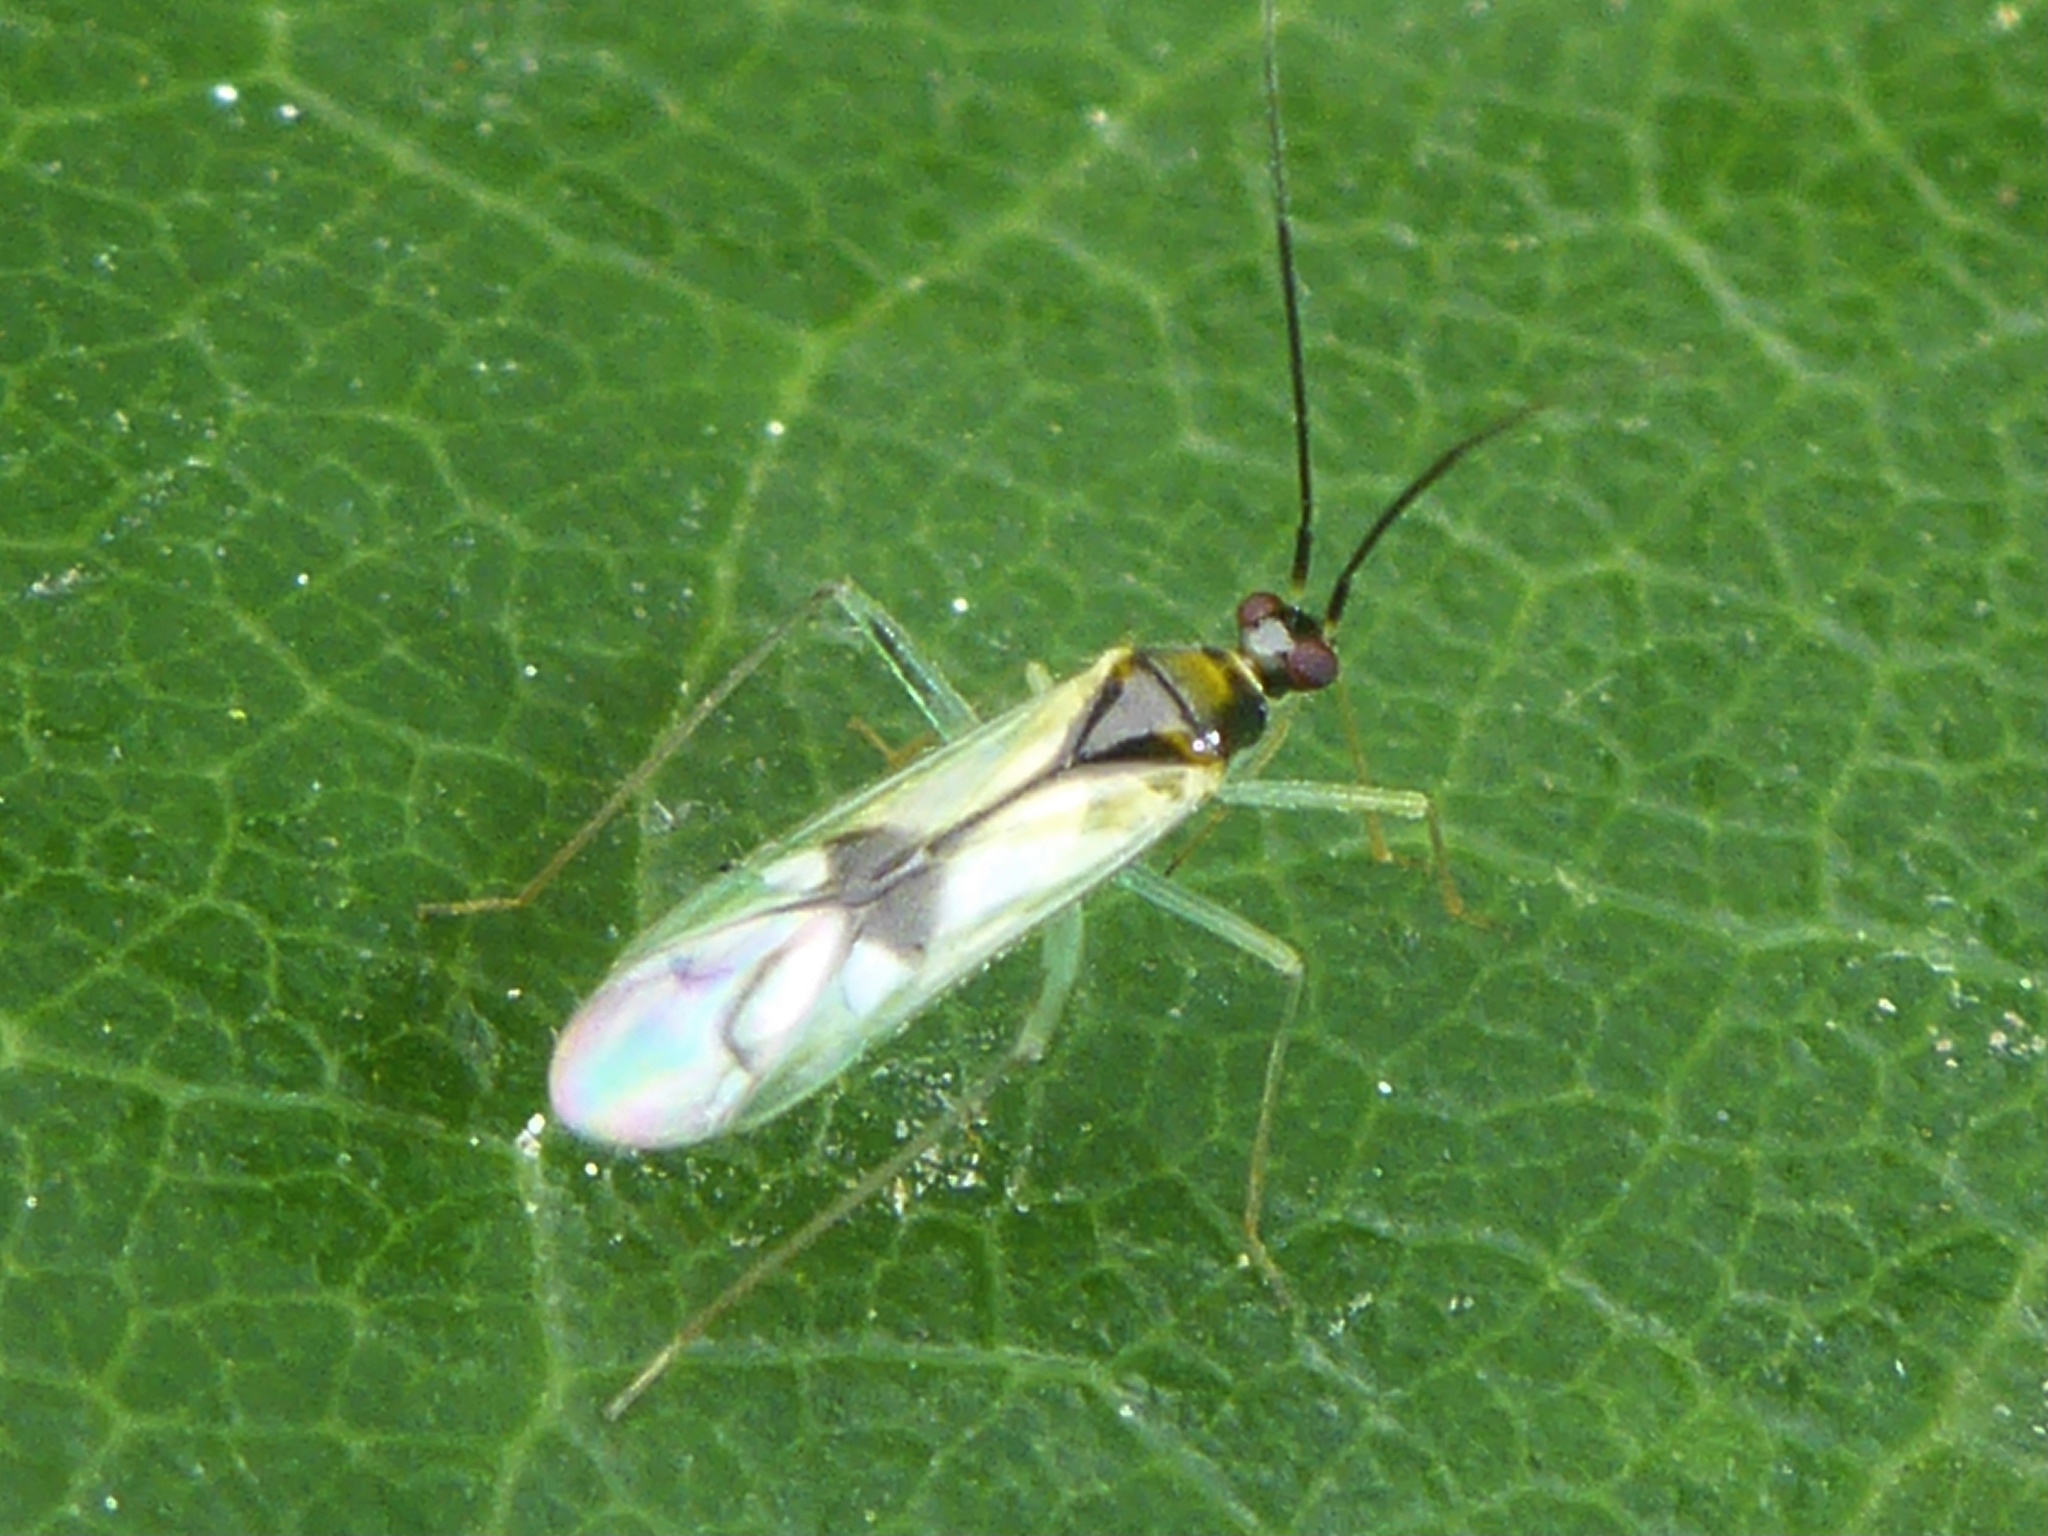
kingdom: Animalia
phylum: Arthropoda
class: Insecta
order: Hemiptera
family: Miridae
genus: Paraproba
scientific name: Paraproba pendula
